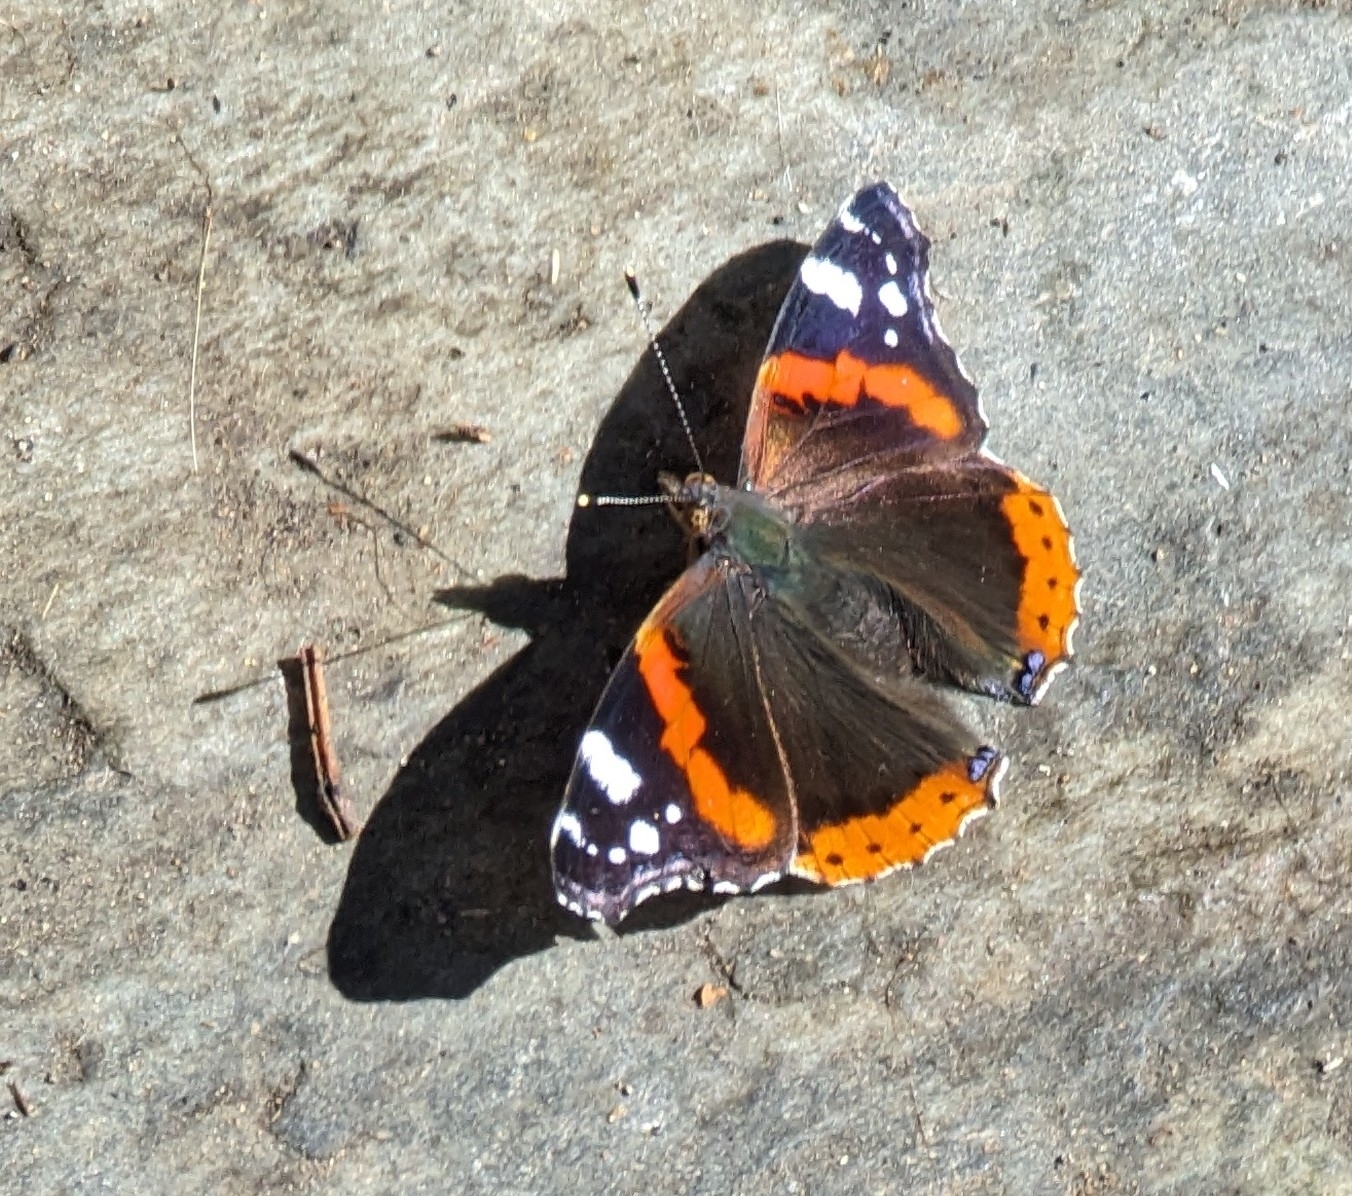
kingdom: Animalia
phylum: Arthropoda
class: Insecta
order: Lepidoptera
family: Nymphalidae
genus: Vanessa
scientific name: Vanessa atalanta
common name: Red admiral
